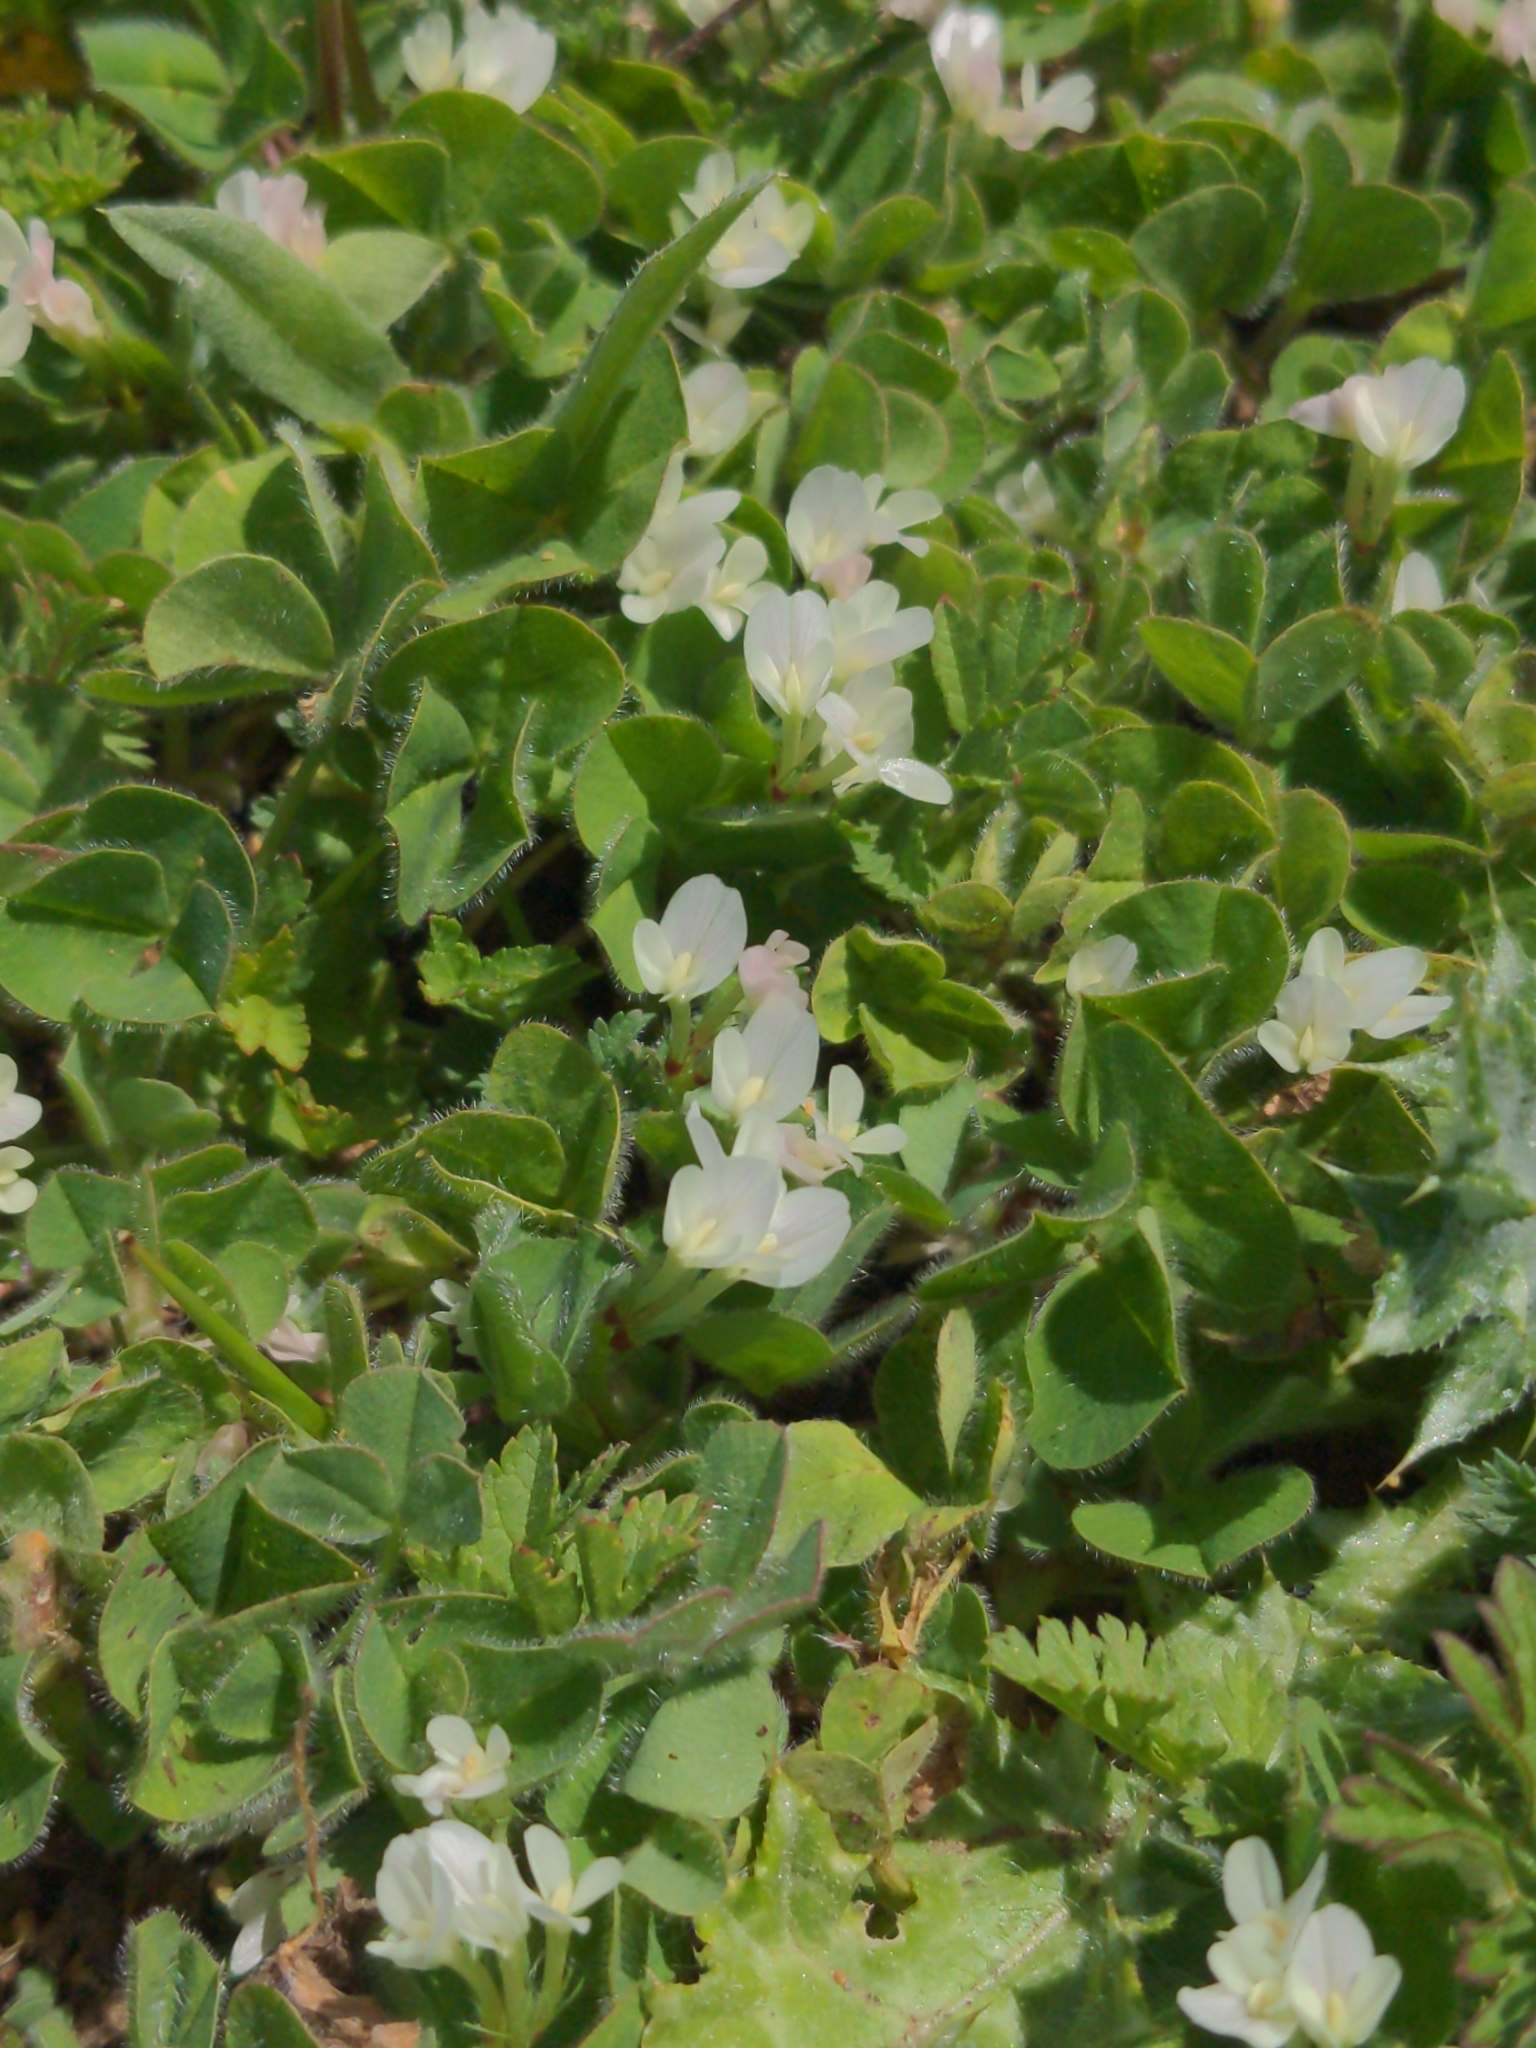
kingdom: Plantae
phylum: Tracheophyta
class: Magnoliopsida
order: Fabales
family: Fabaceae
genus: Trifolium
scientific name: Trifolium subterraneum
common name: Subterranean clover
